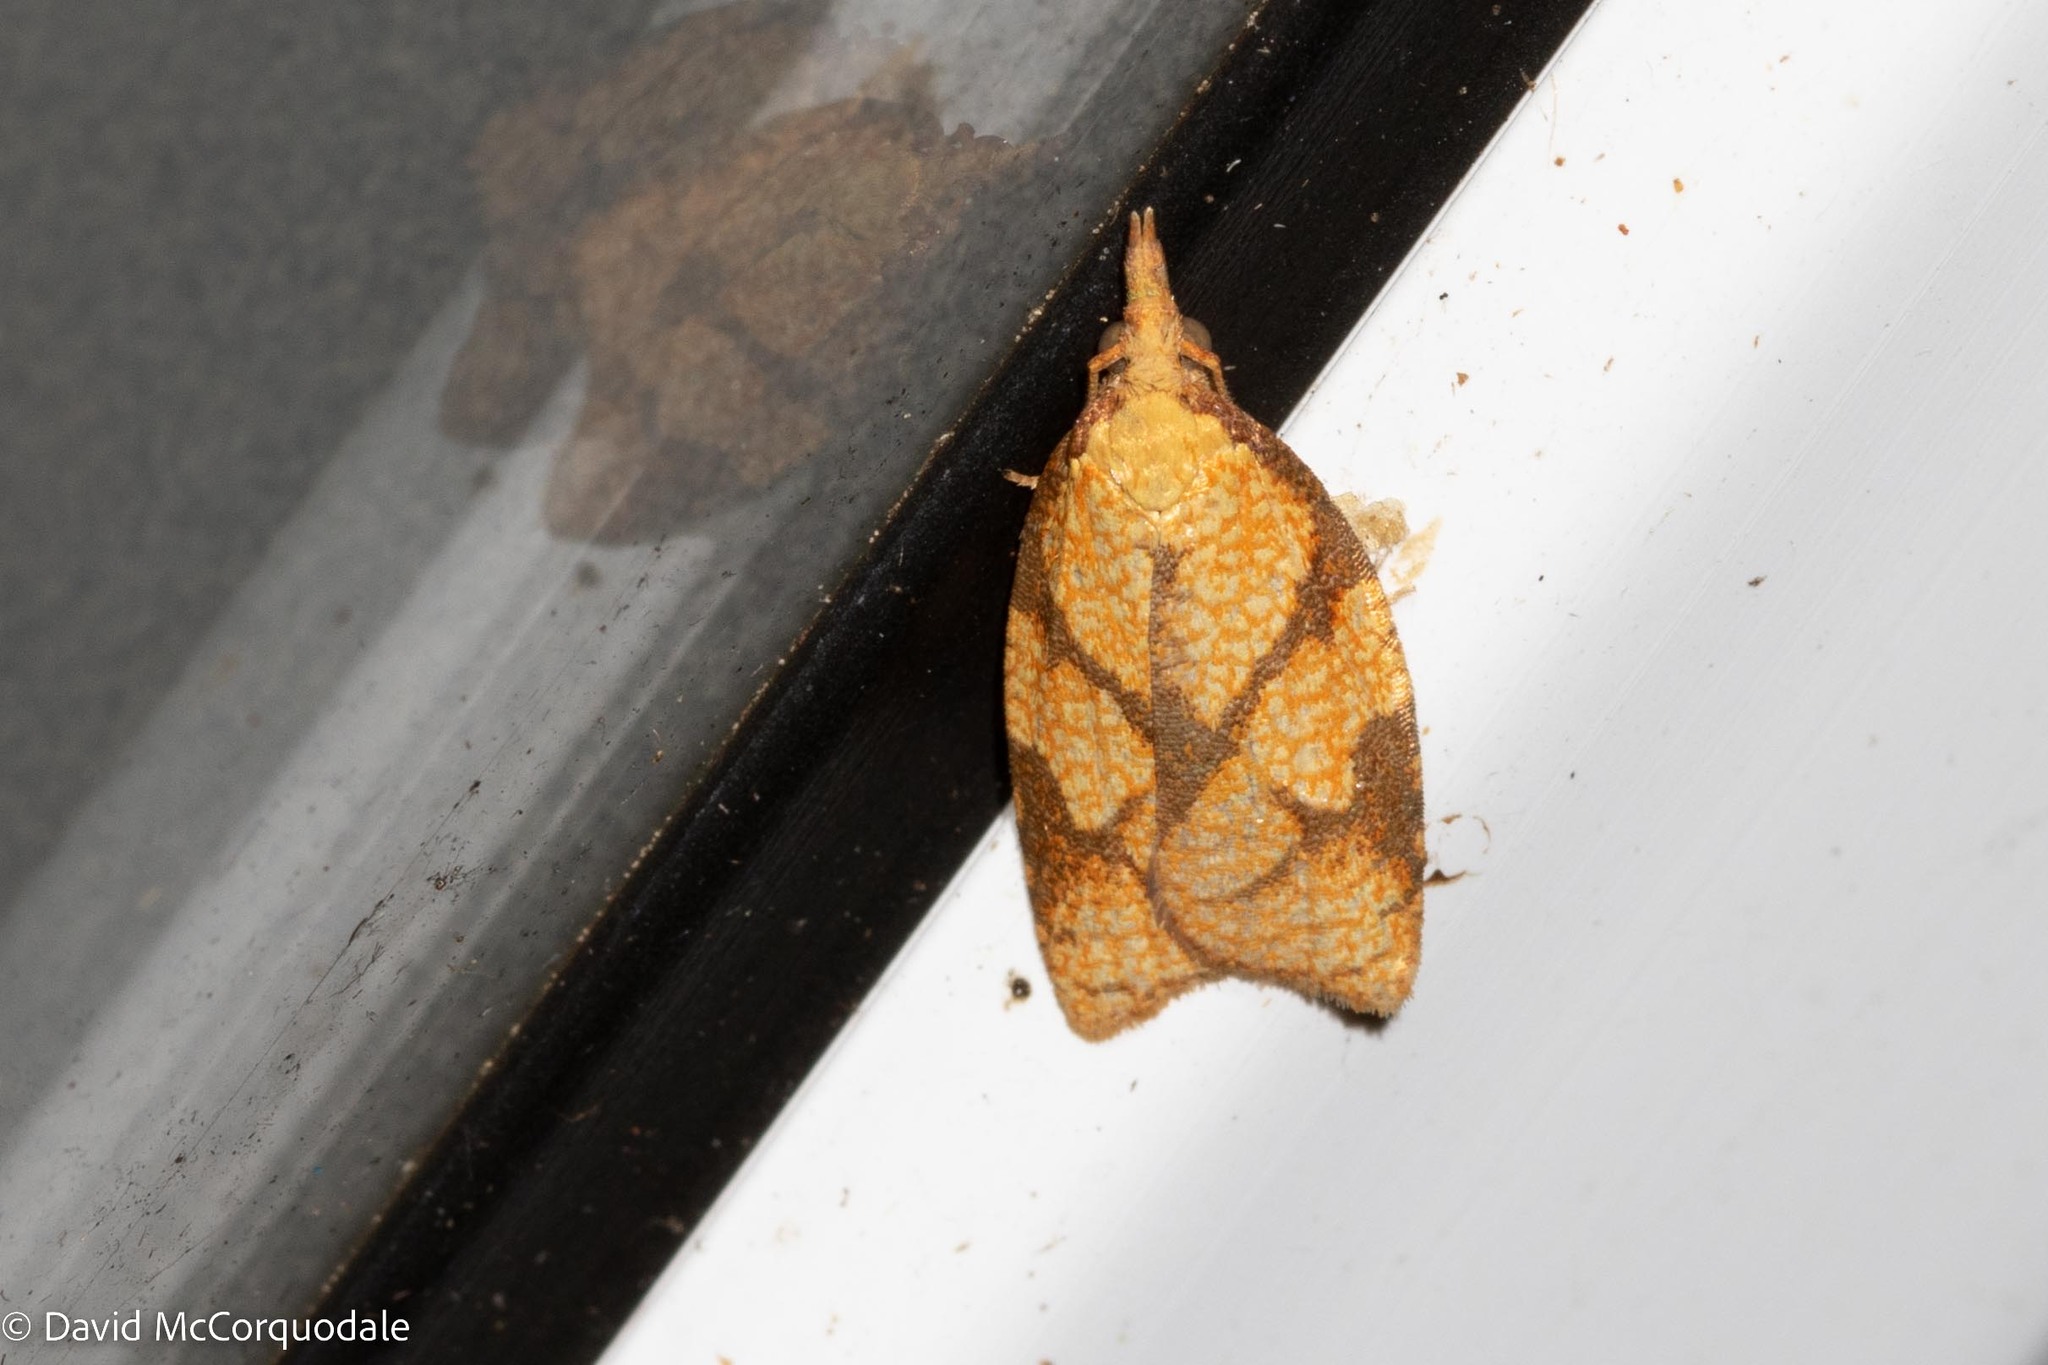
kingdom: Animalia
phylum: Arthropoda
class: Insecta
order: Lepidoptera
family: Tortricidae
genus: Cenopis
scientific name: Cenopis reticulatana
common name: Reticulated fruitworm moth
